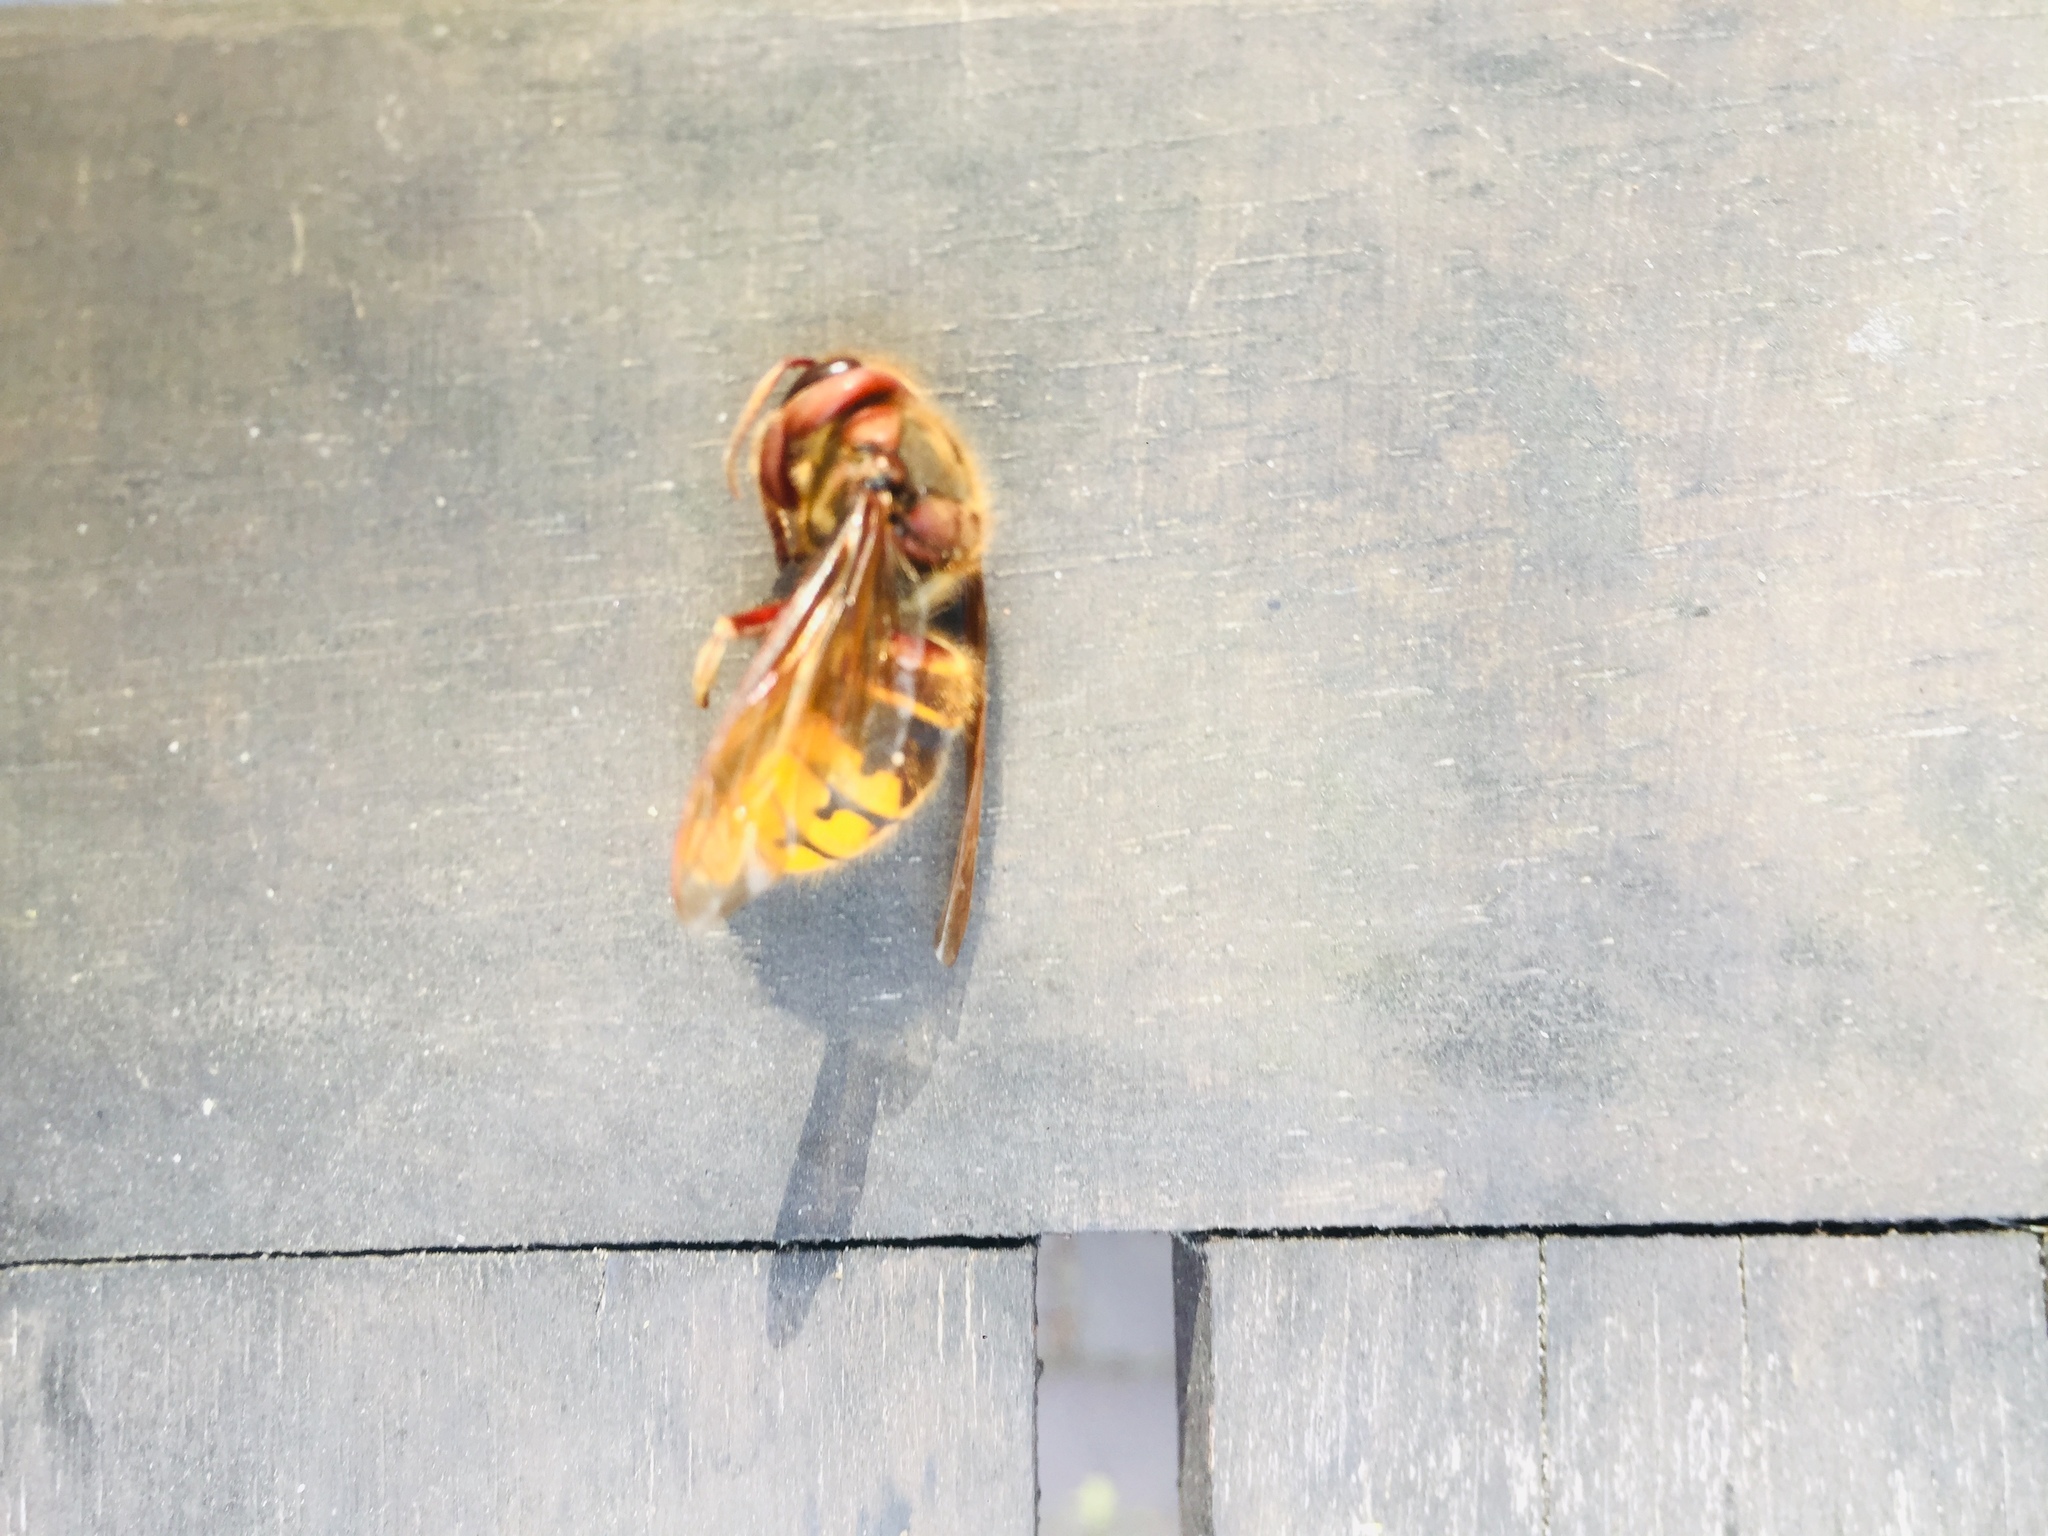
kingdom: Animalia
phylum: Arthropoda
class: Insecta
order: Hymenoptera
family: Vespidae
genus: Vespa
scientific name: Vespa crabro
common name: Hornet
